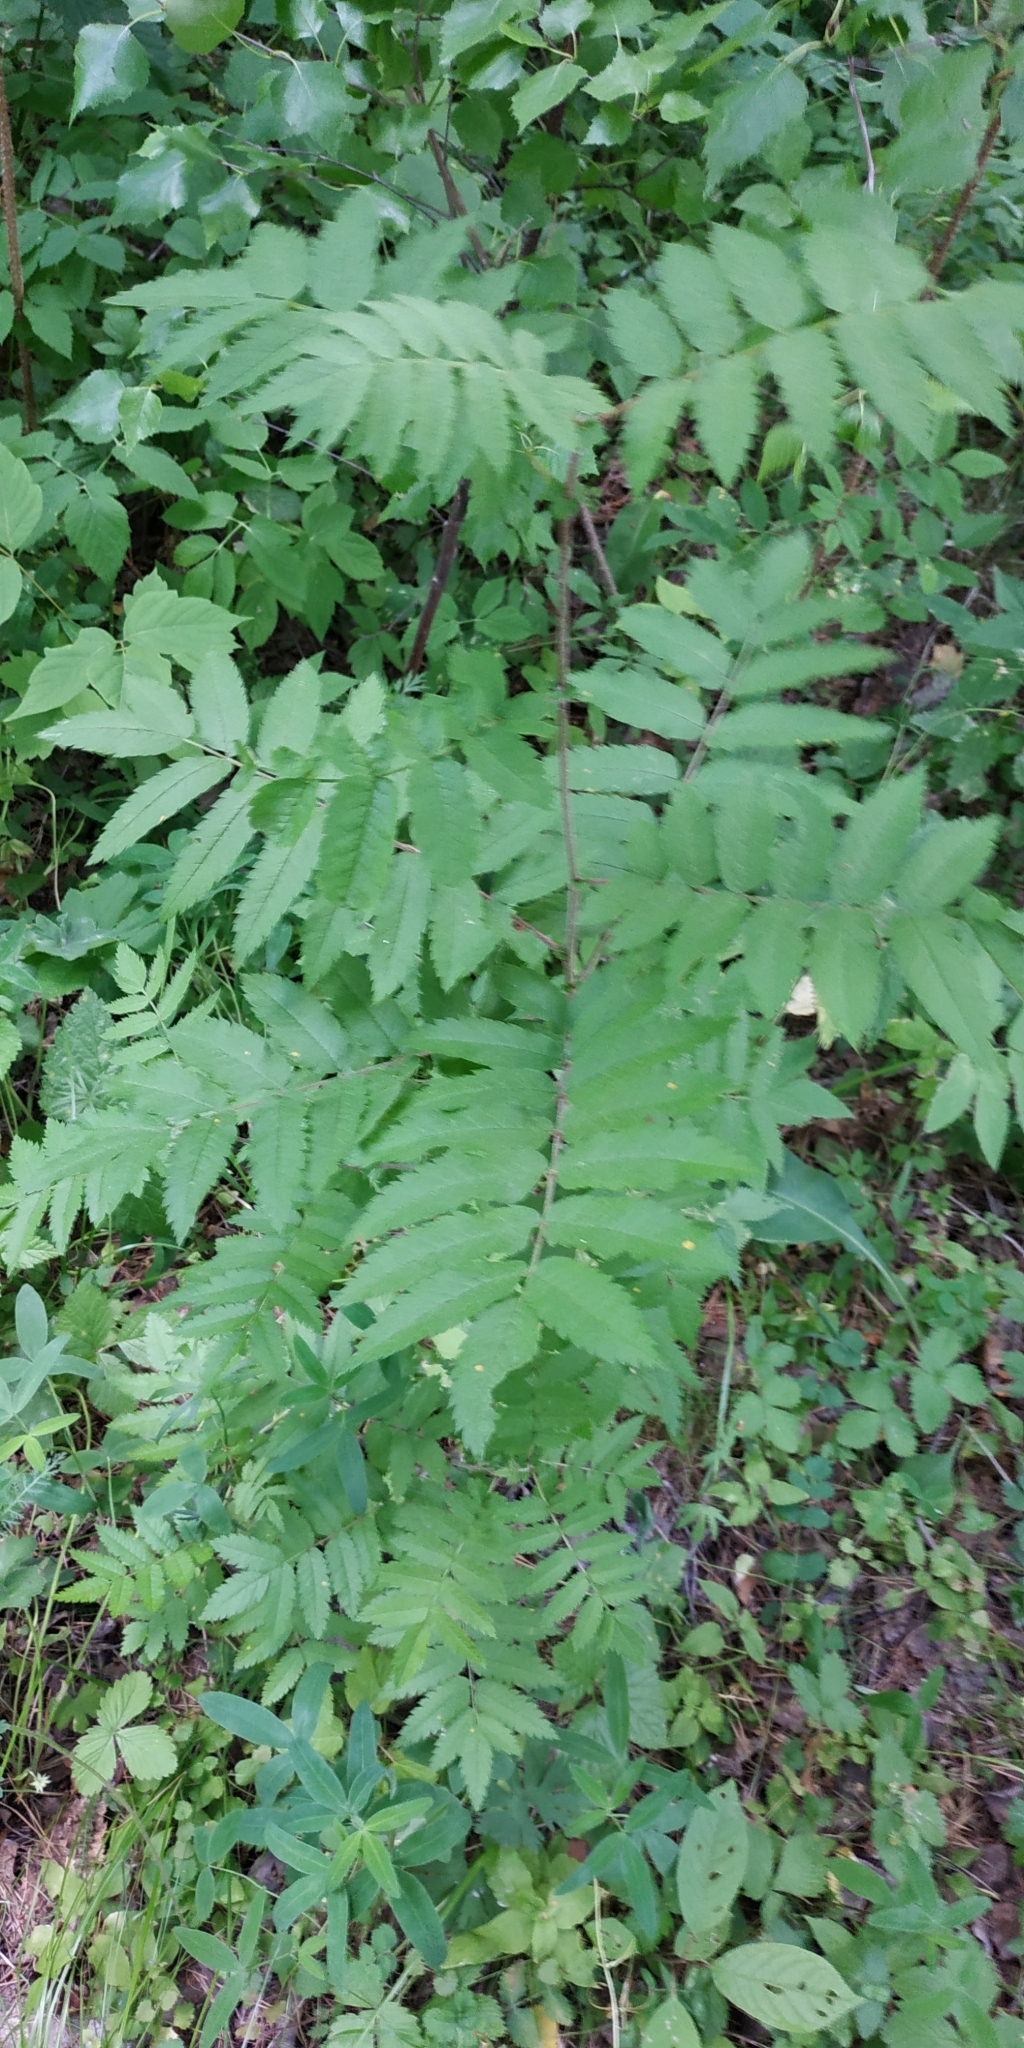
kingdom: Plantae
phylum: Tracheophyta
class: Magnoliopsida
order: Rosales
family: Rosaceae
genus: Sorbus
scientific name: Sorbus aucuparia
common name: Rowan
